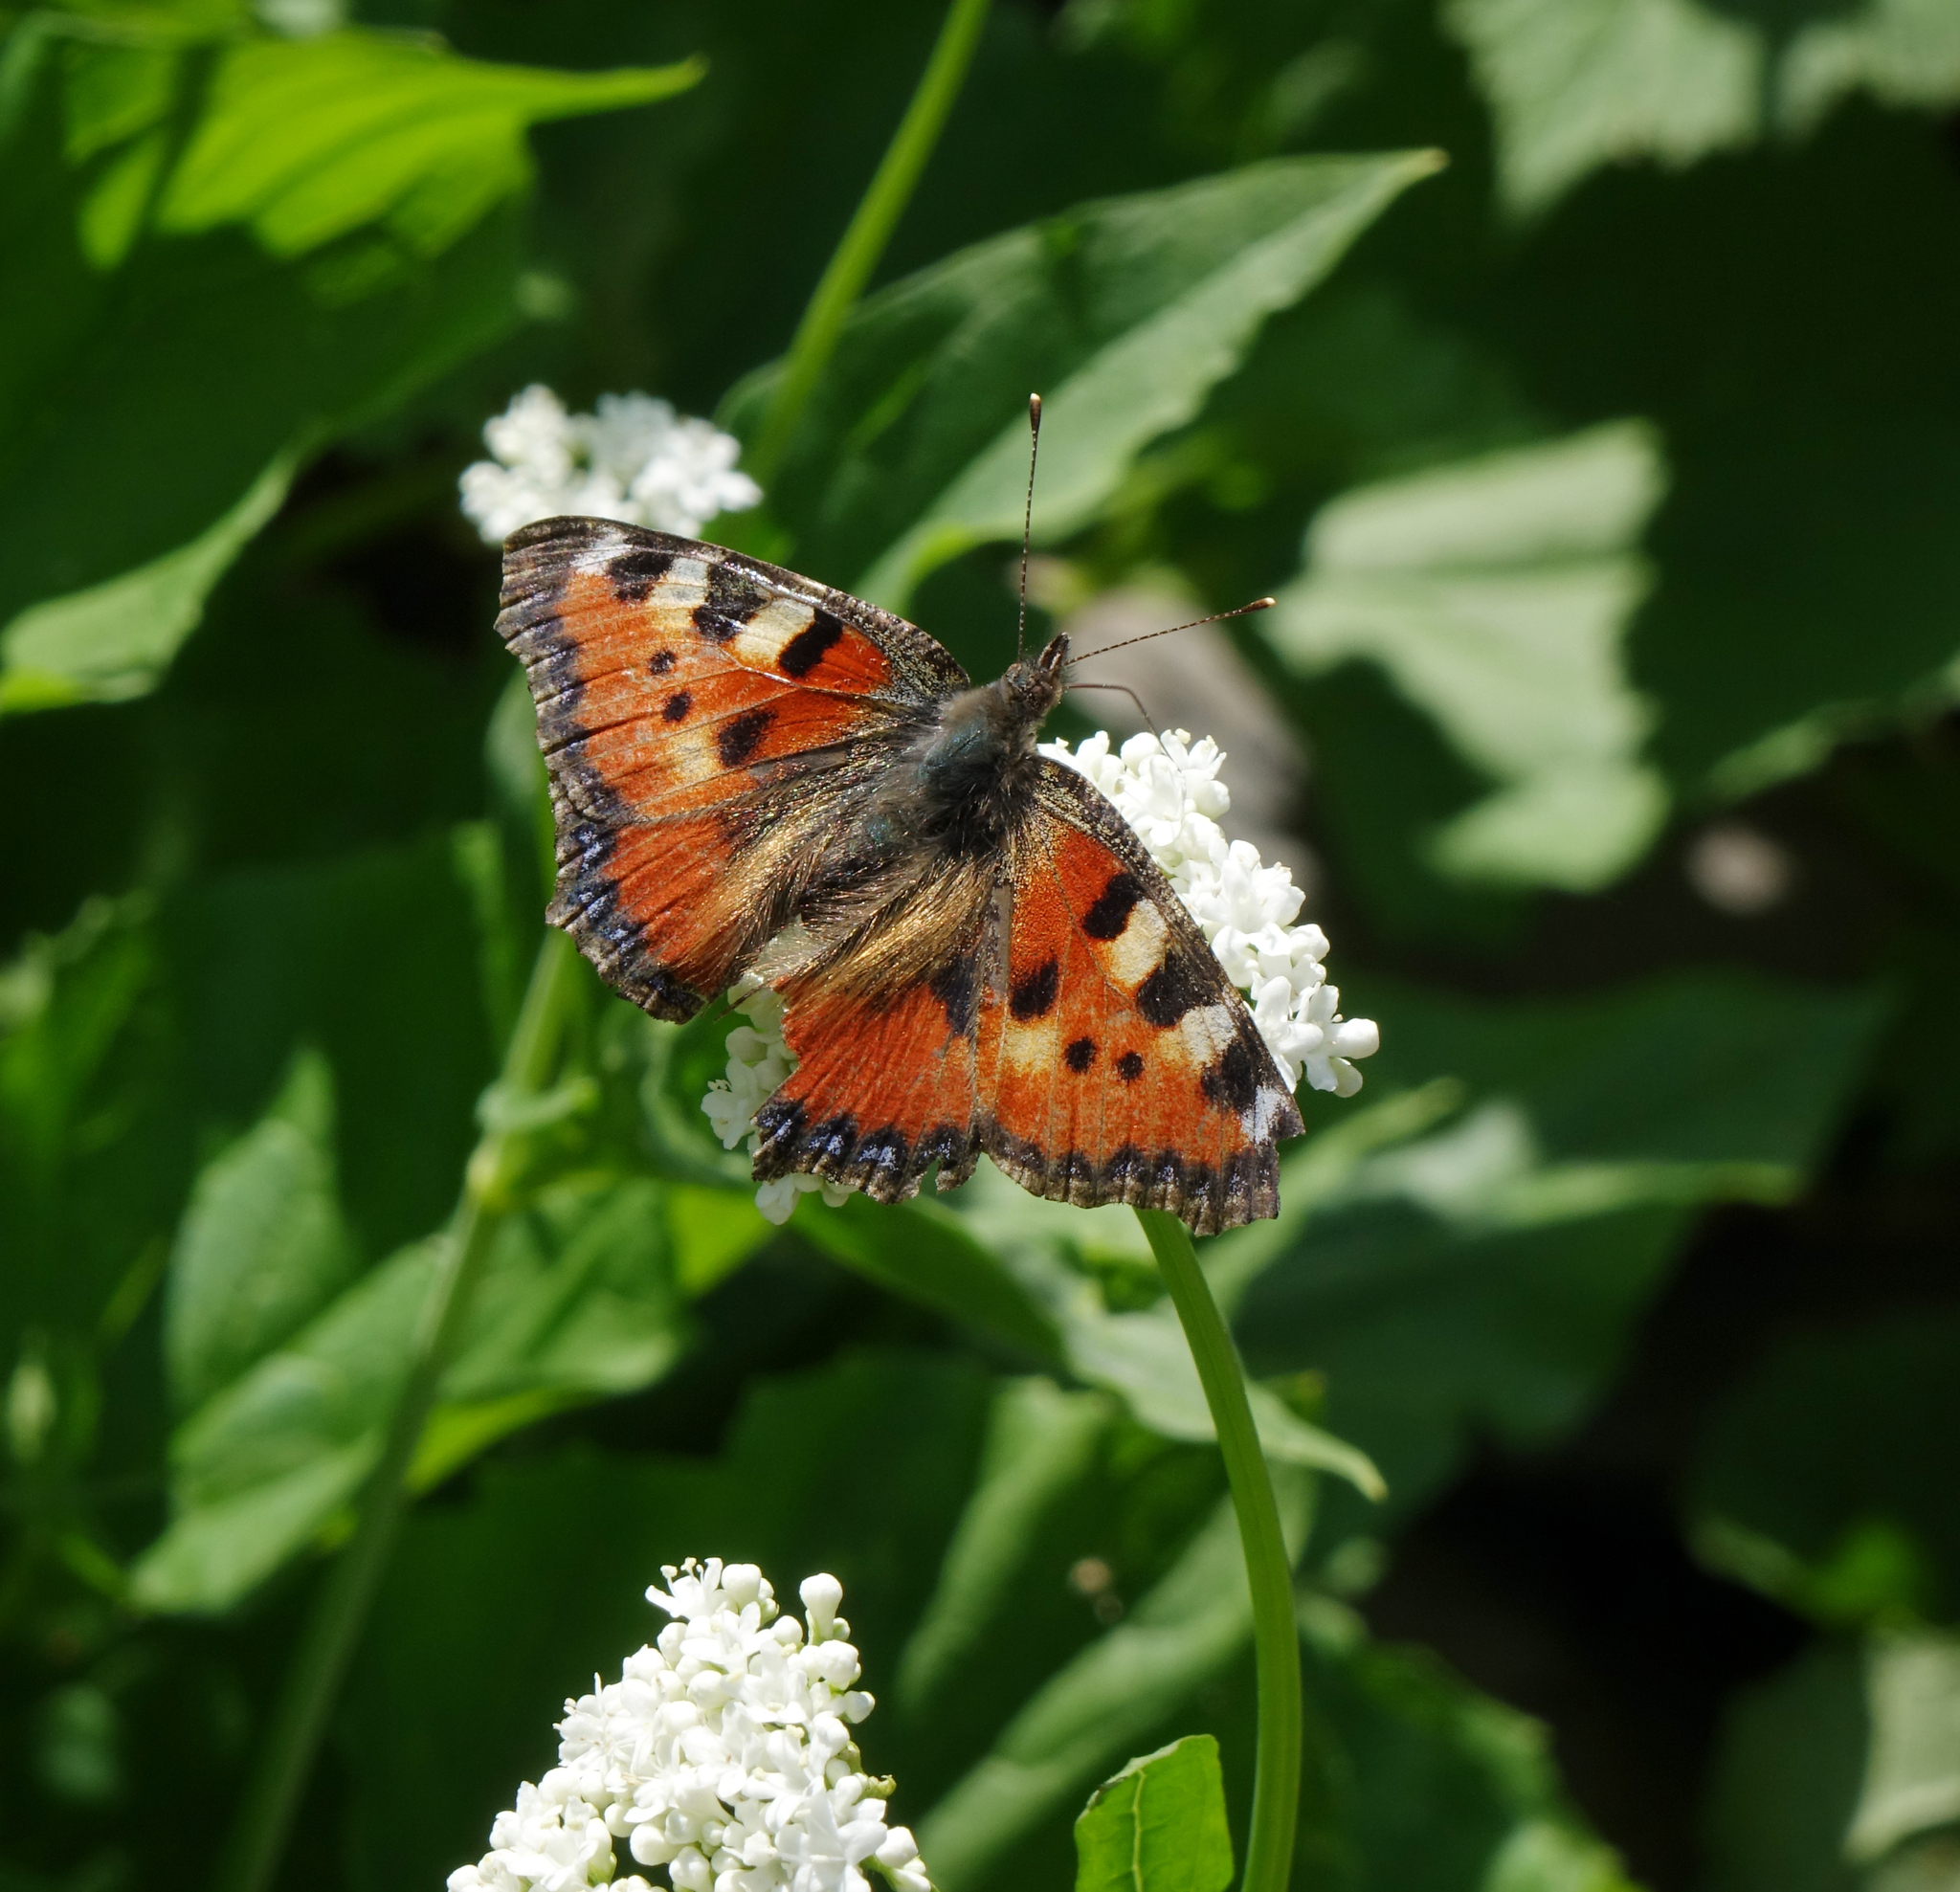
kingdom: Animalia
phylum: Arthropoda
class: Insecta
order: Lepidoptera
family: Nymphalidae
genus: Aglais
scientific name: Aglais urticae
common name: Small tortoiseshell
